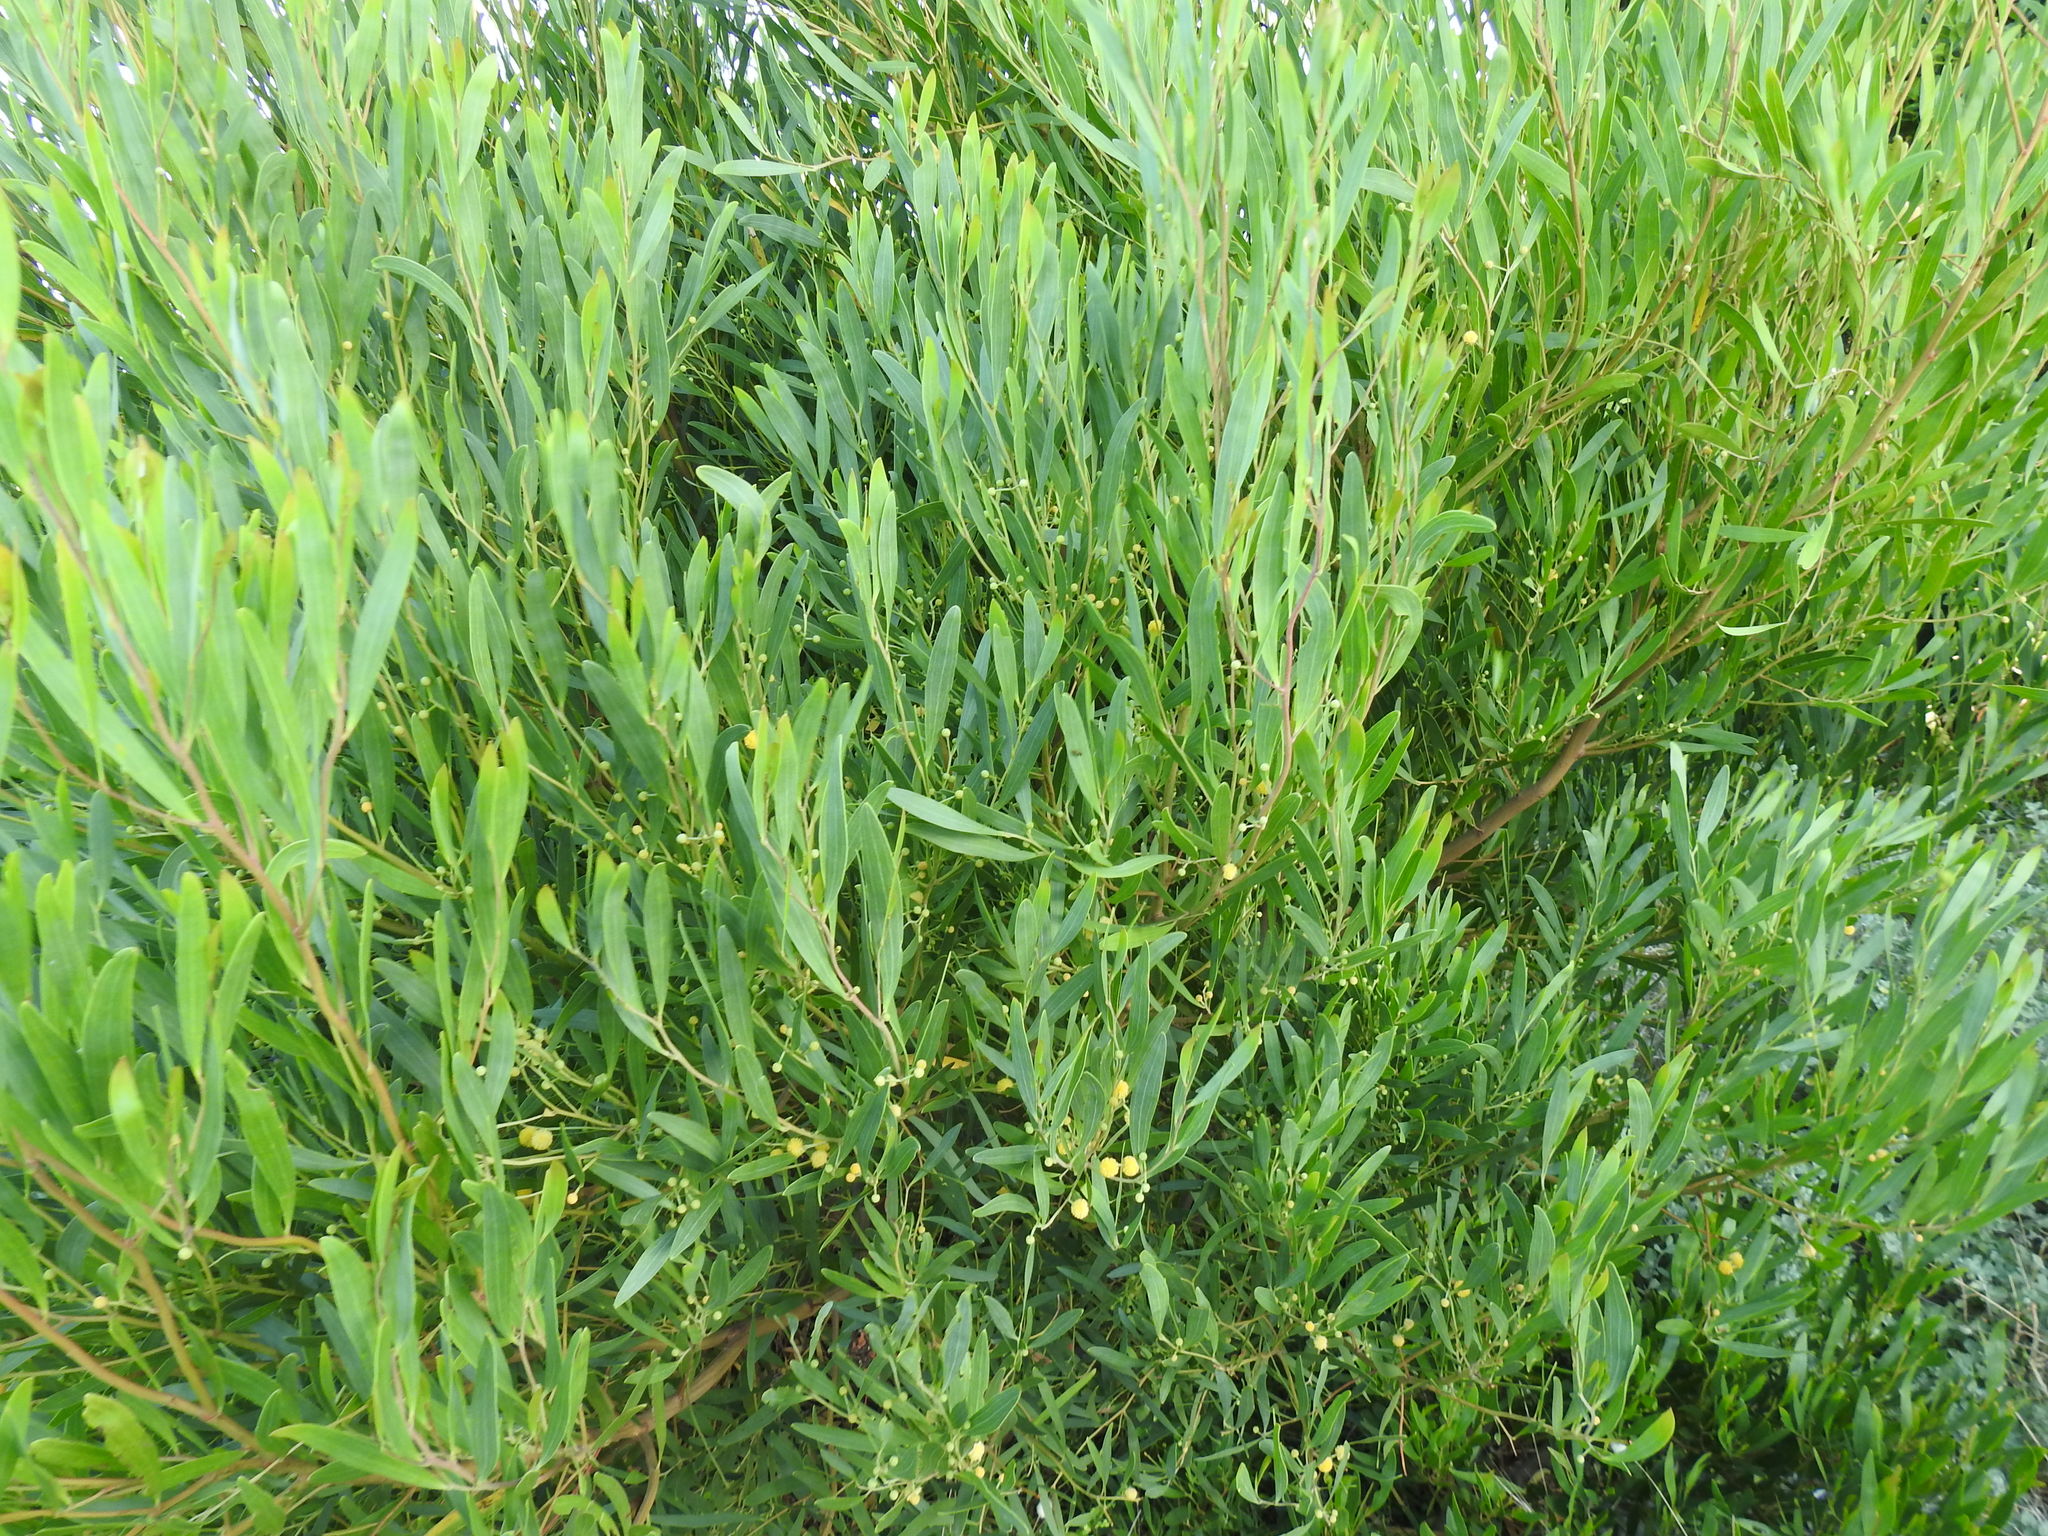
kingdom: Plantae
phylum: Tracheophyta
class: Magnoliopsida
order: Fabales
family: Fabaceae
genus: Acacia
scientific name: Acacia cyclops
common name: Coastal wattle
